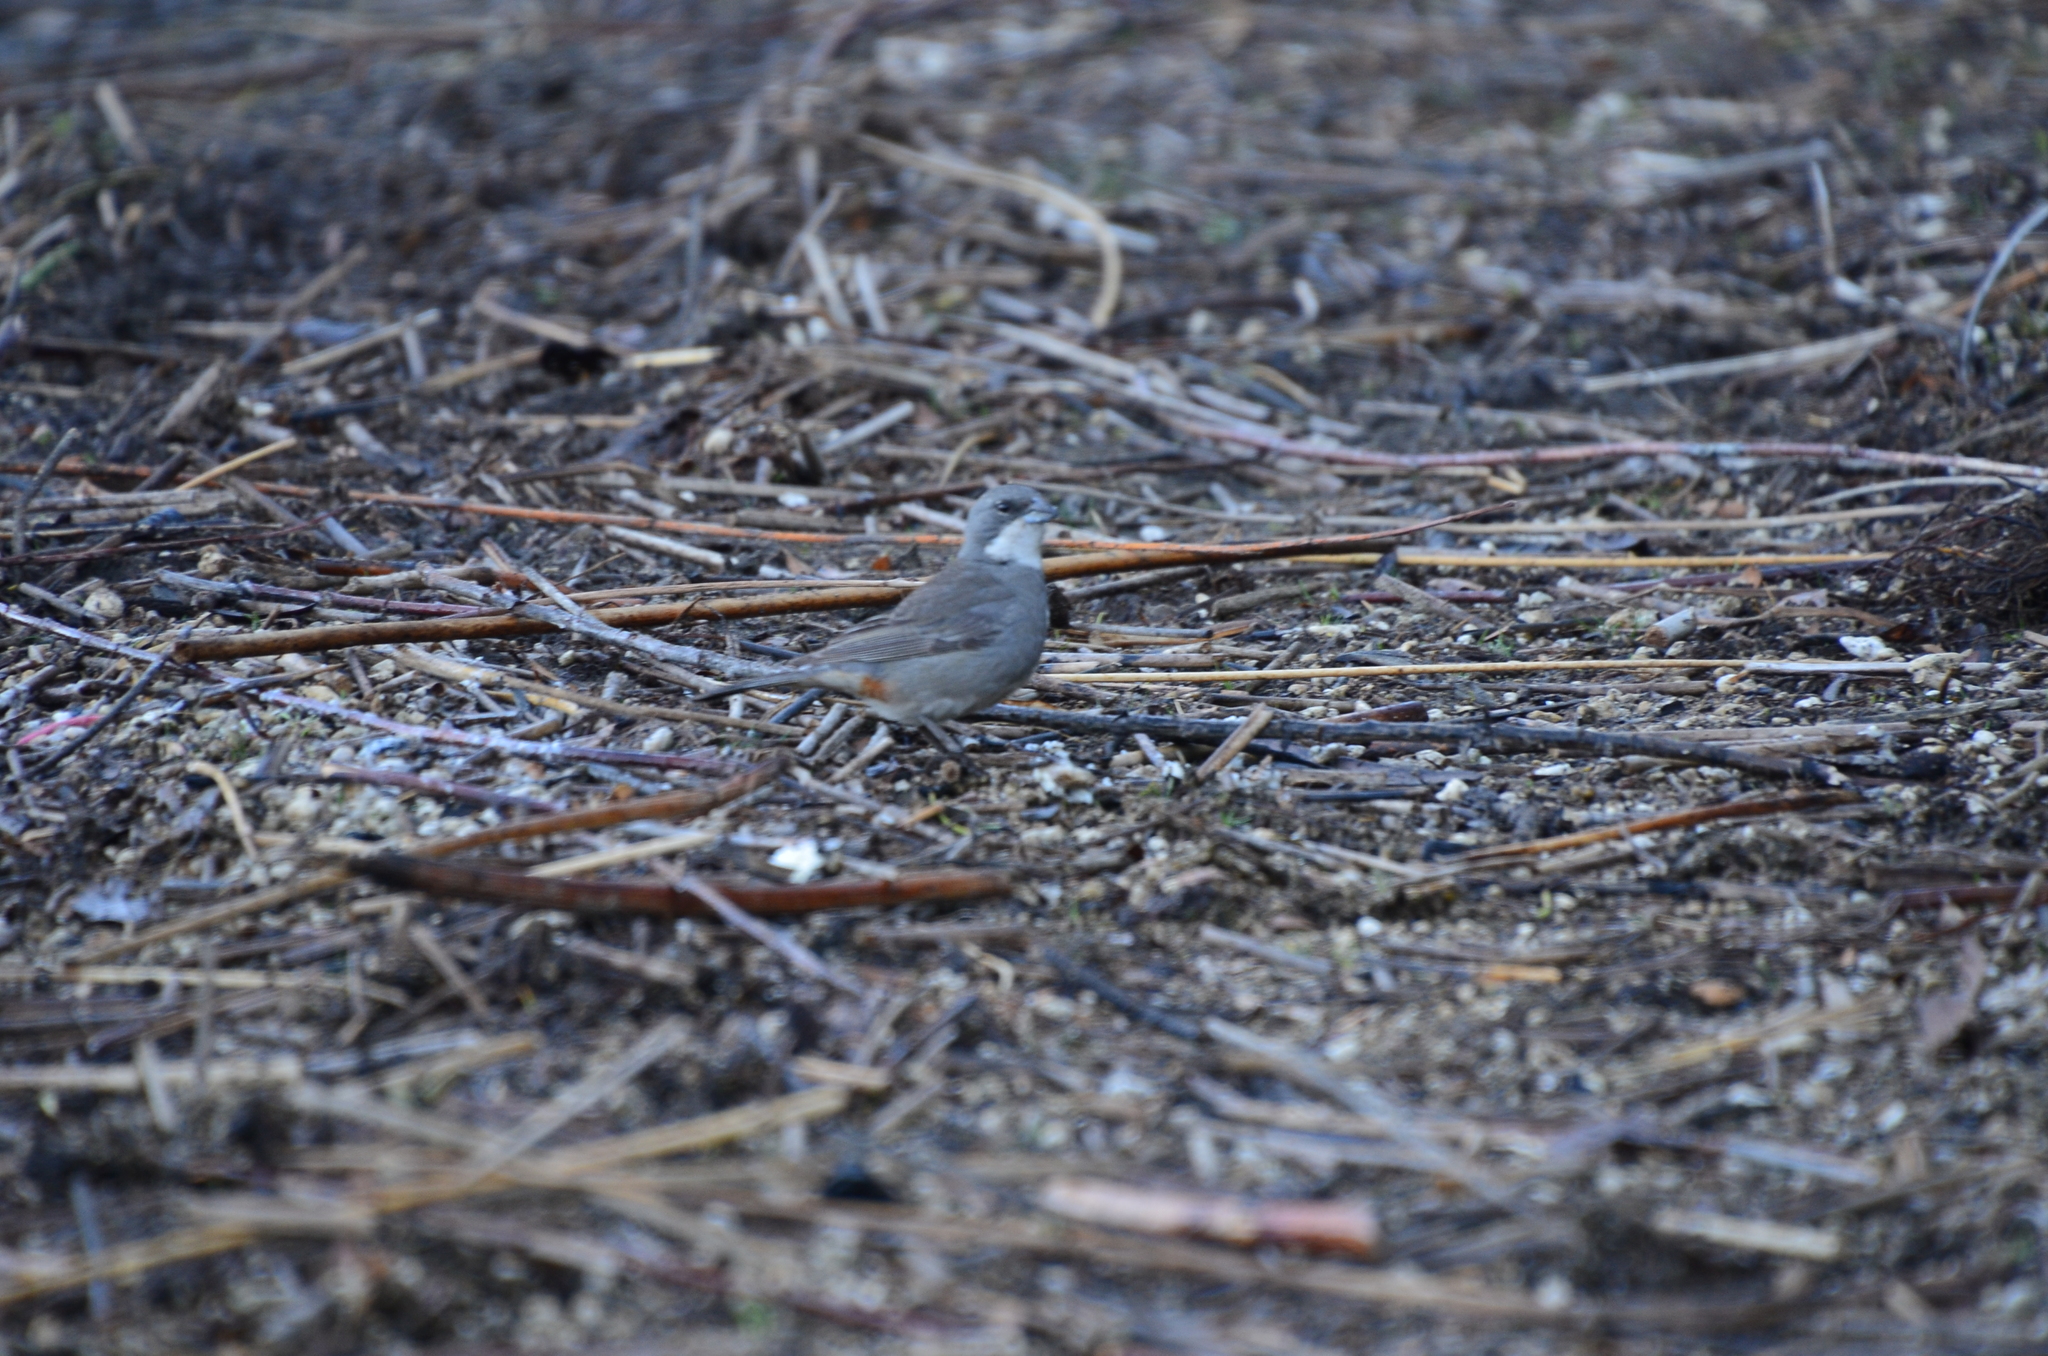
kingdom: Animalia
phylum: Chordata
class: Aves
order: Passeriformes
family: Thraupidae
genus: Diuca
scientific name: Diuca diuca
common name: Common diuca finch
